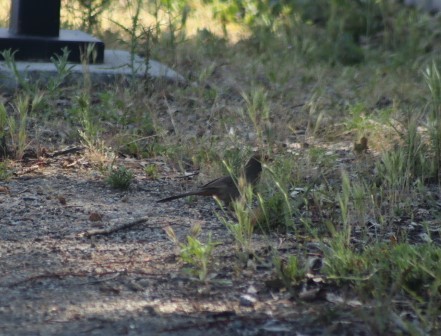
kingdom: Animalia
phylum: Chordata
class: Aves
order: Passeriformes
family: Passerellidae
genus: Melozone
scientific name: Melozone crissalis
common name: California towhee
